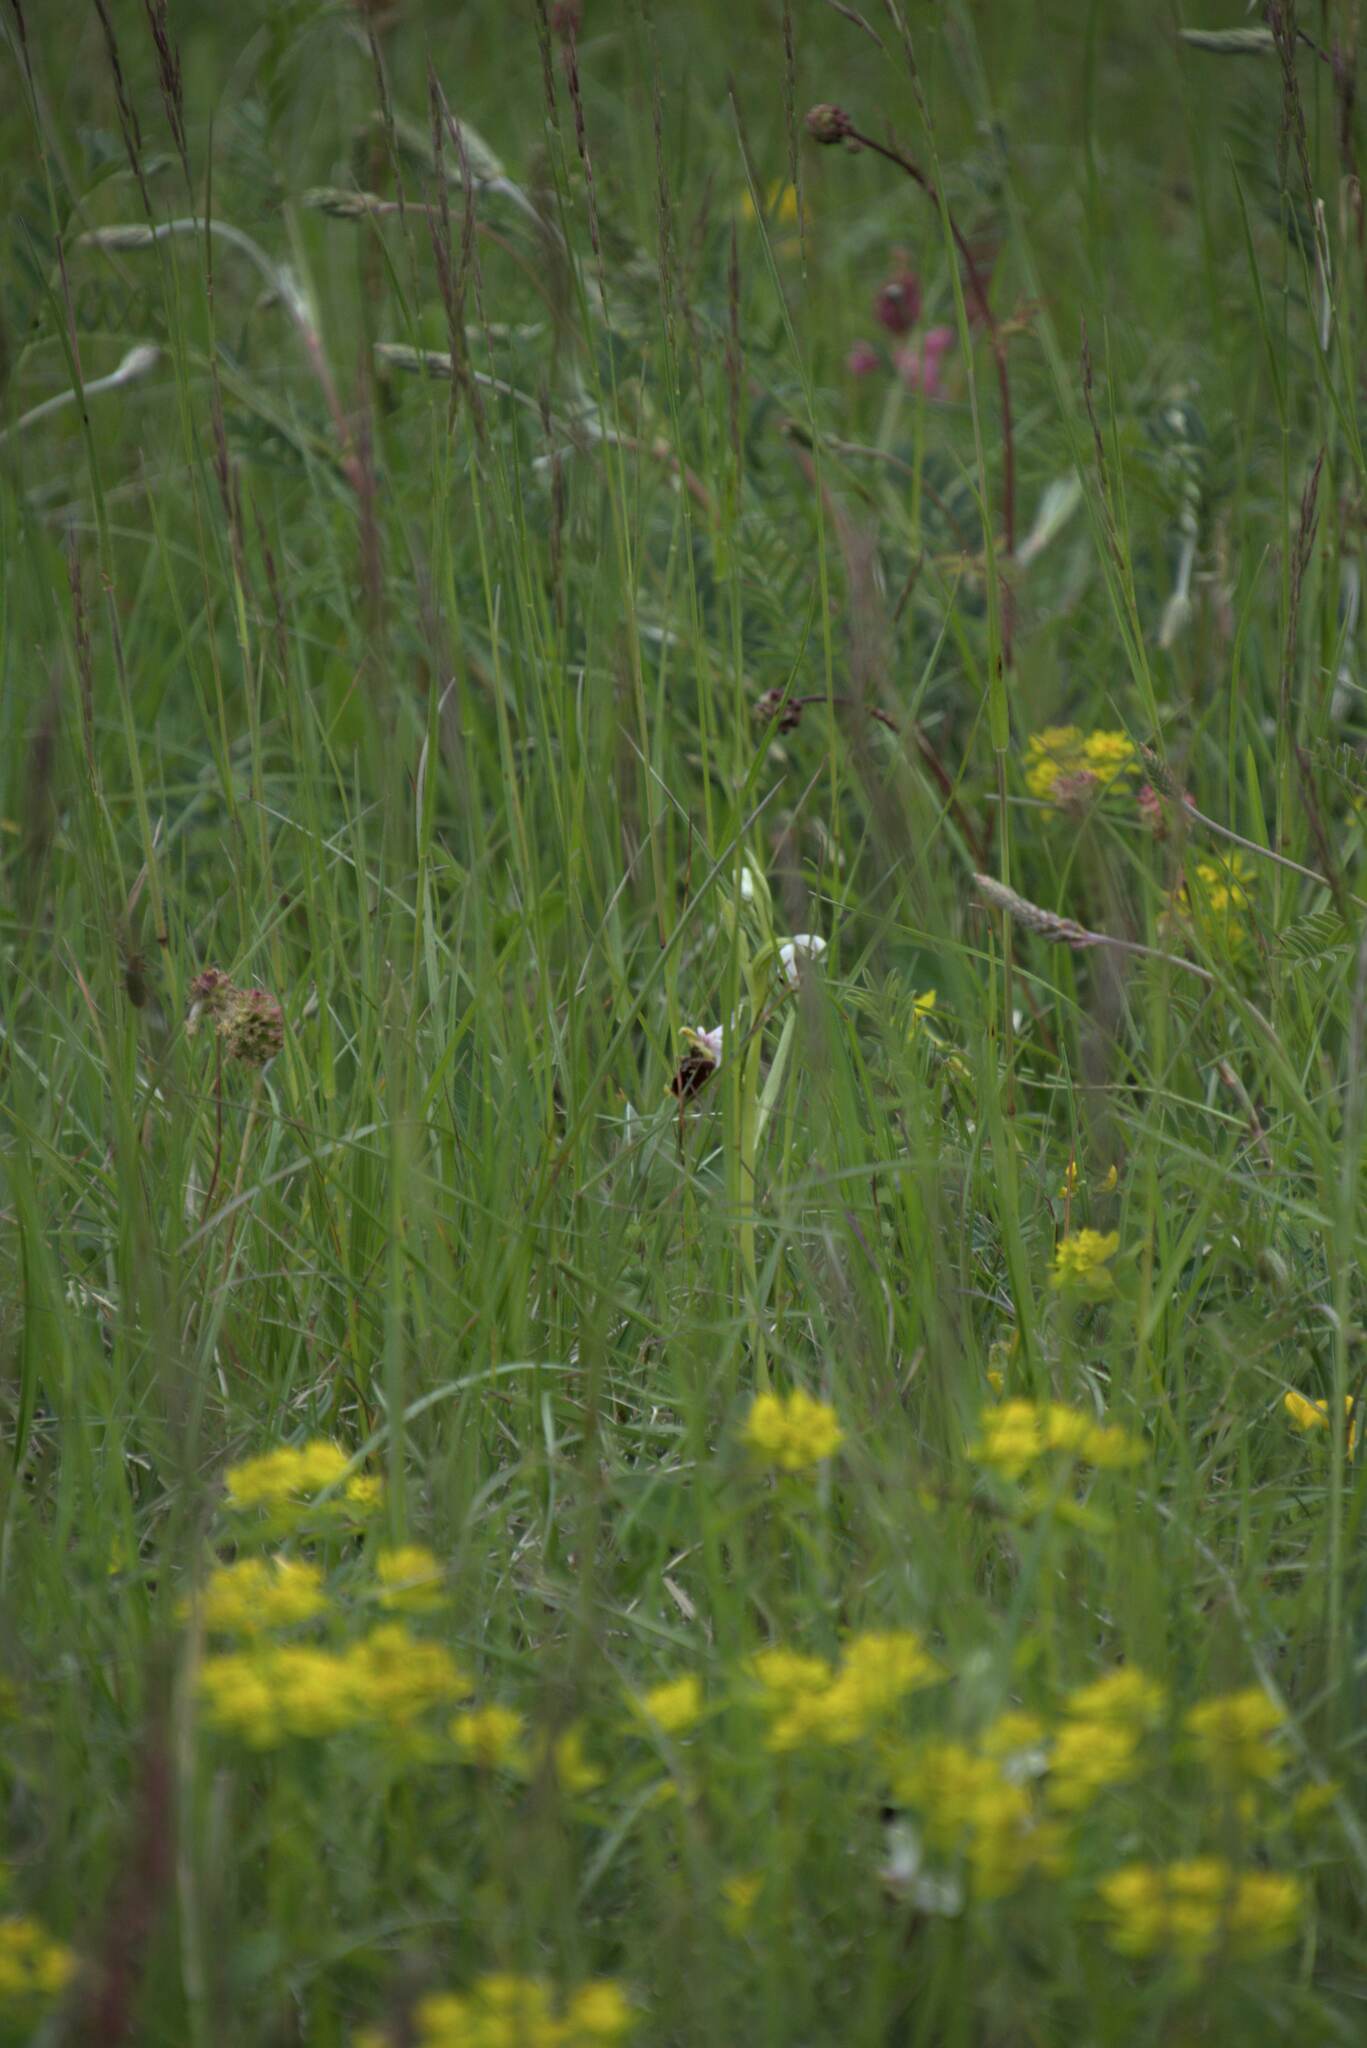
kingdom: Plantae
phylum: Tracheophyta
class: Liliopsida
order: Asparagales
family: Orchidaceae
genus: Ophrys
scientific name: Ophrys holosericea
